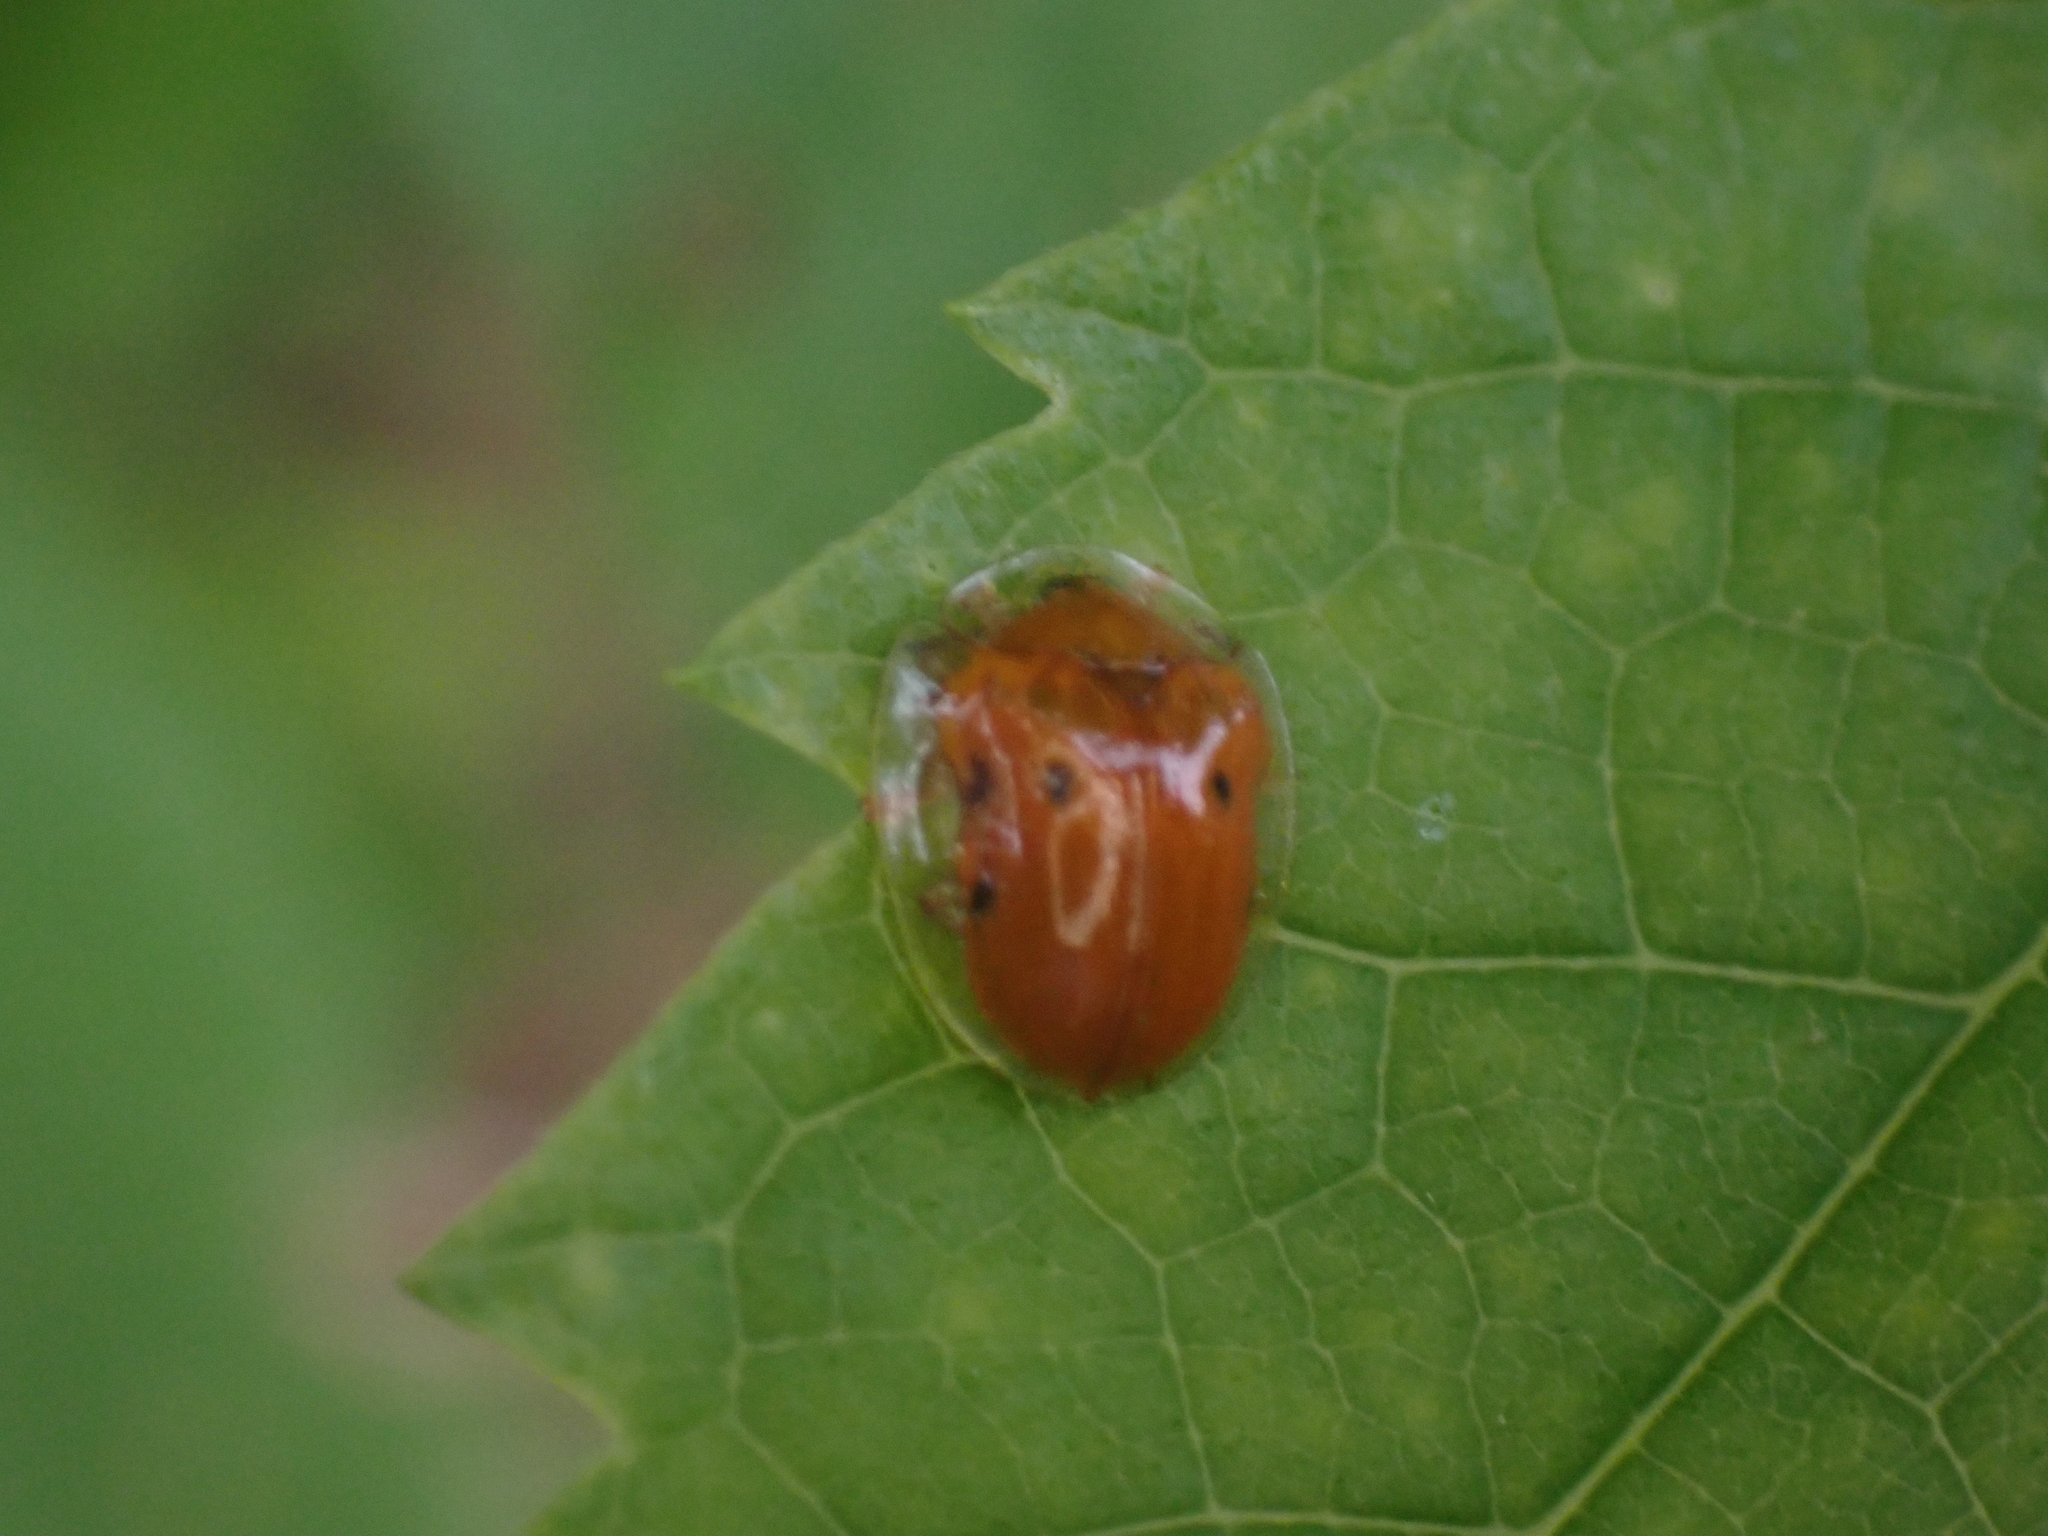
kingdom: Animalia
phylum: Arthropoda
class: Insecta
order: Coleoptera
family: Chrysomelidae
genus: Charidotella
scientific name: Charidotella sexpunctata
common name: Golden tortoise beetle
